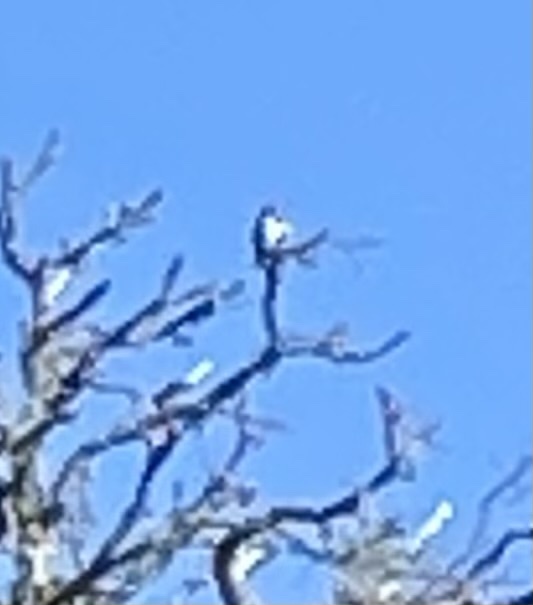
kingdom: Animalia
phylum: Chordata
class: Aves
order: Piciformes
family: Picidae
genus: Melanerpes
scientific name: Melanerpes formicivorus
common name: Acorn woodpecker
